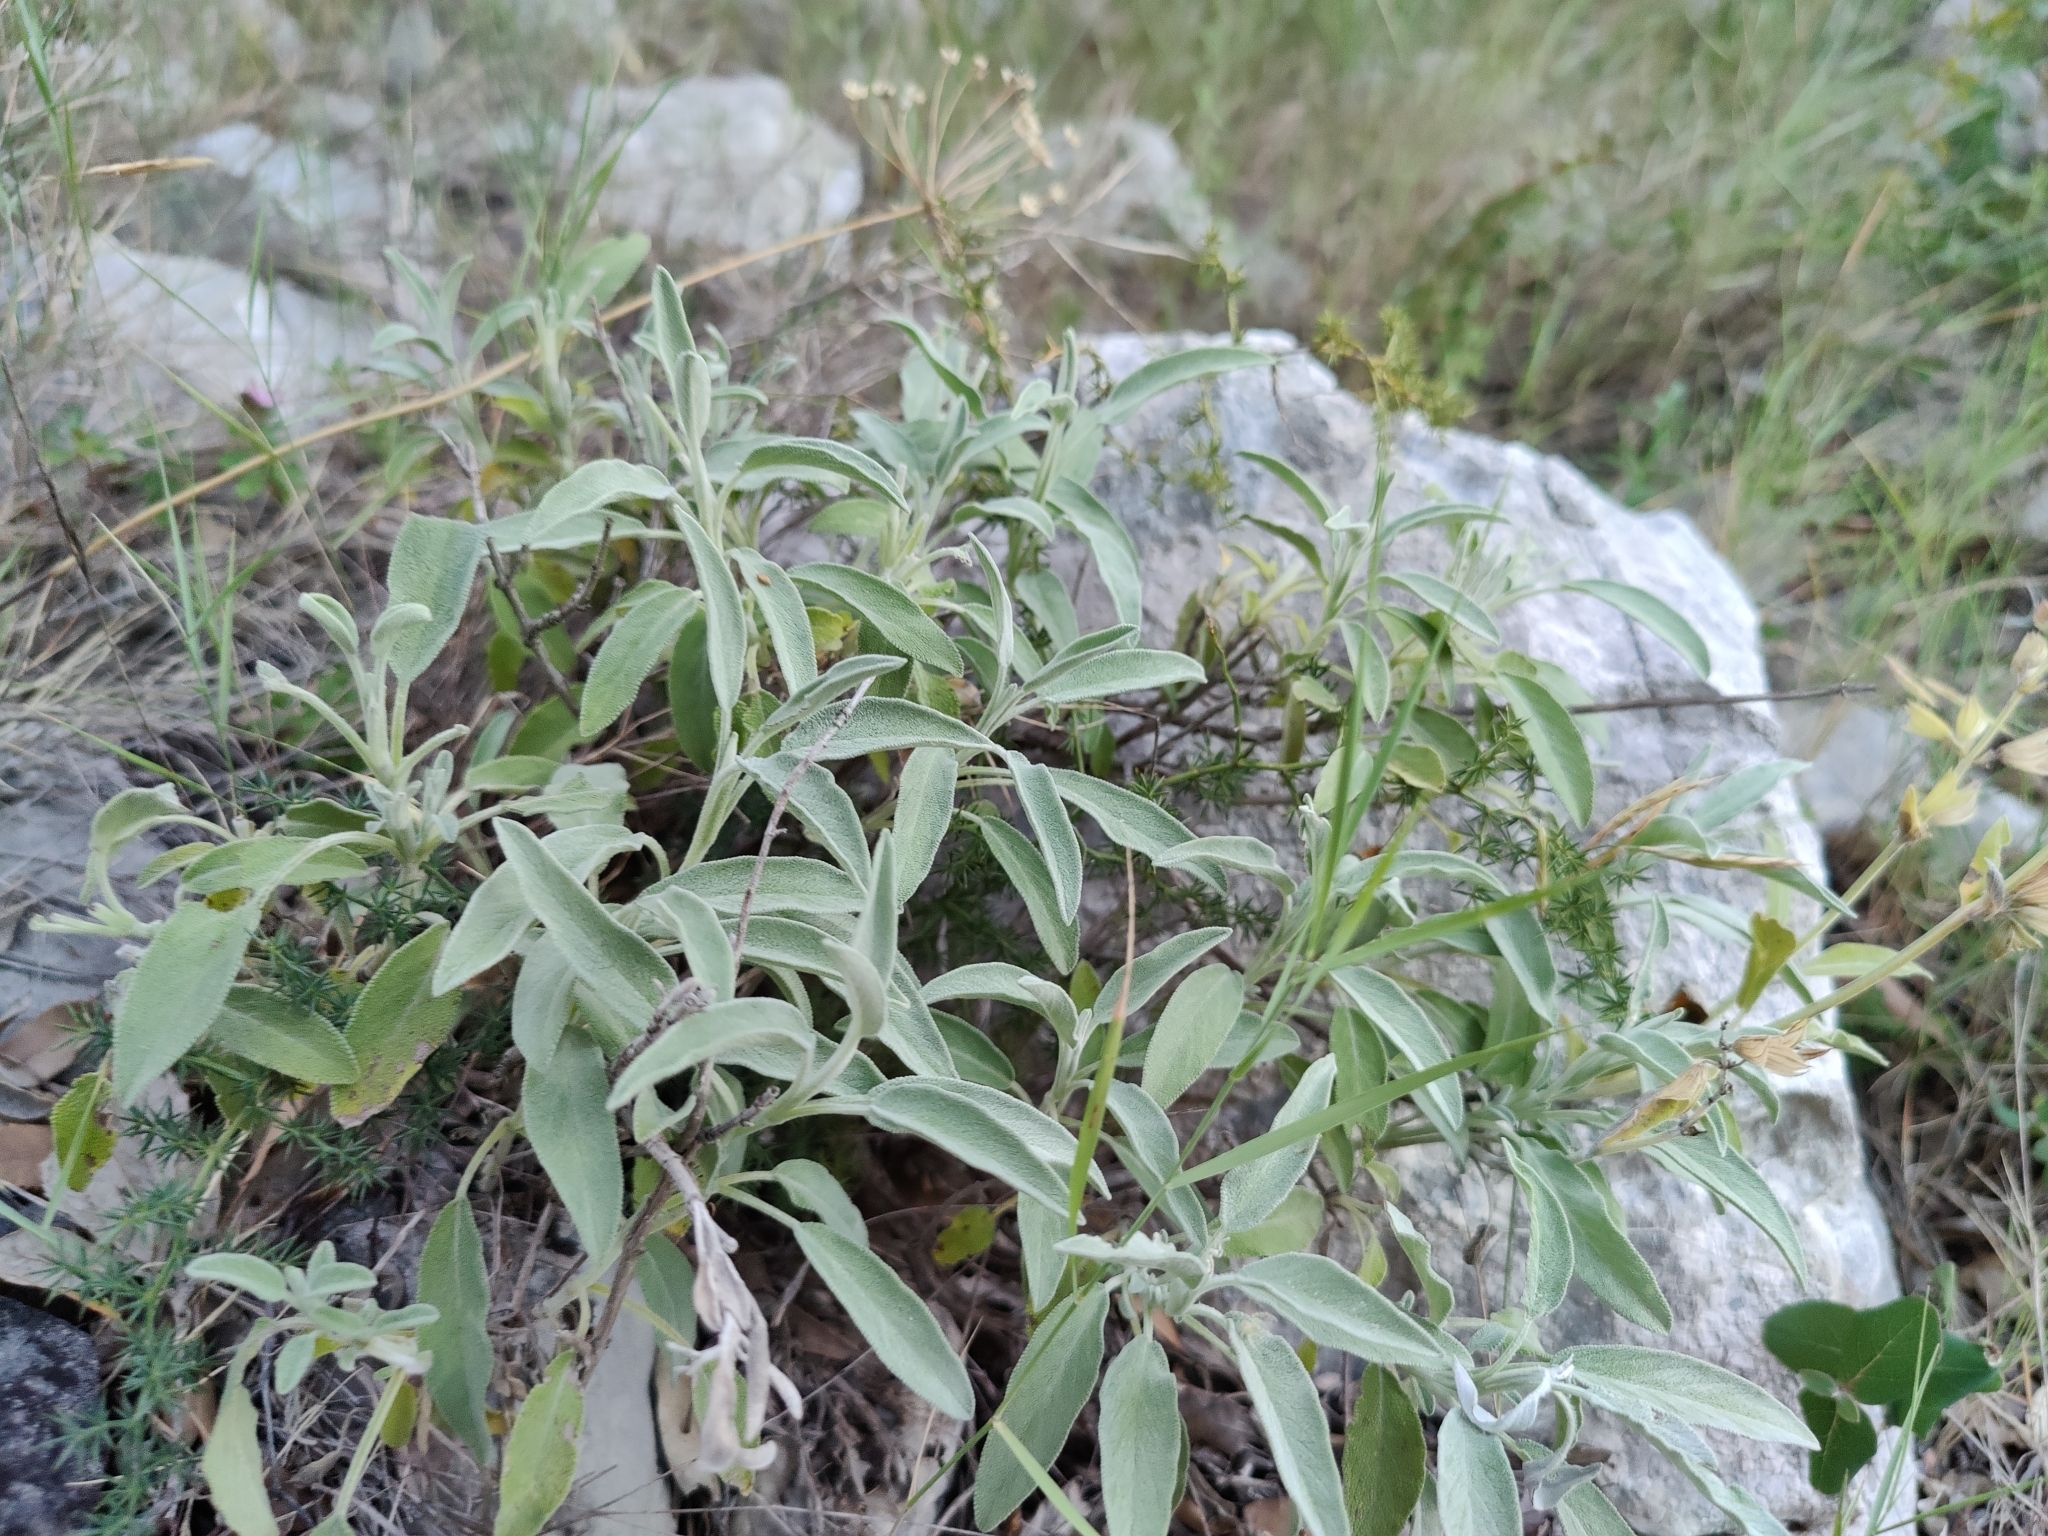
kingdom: Plantae
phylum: Tracheophyta
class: Magnoliopsida
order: Lamiales
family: Lamiaceae
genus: Salvia
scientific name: Salvia officinalis
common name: Sage
